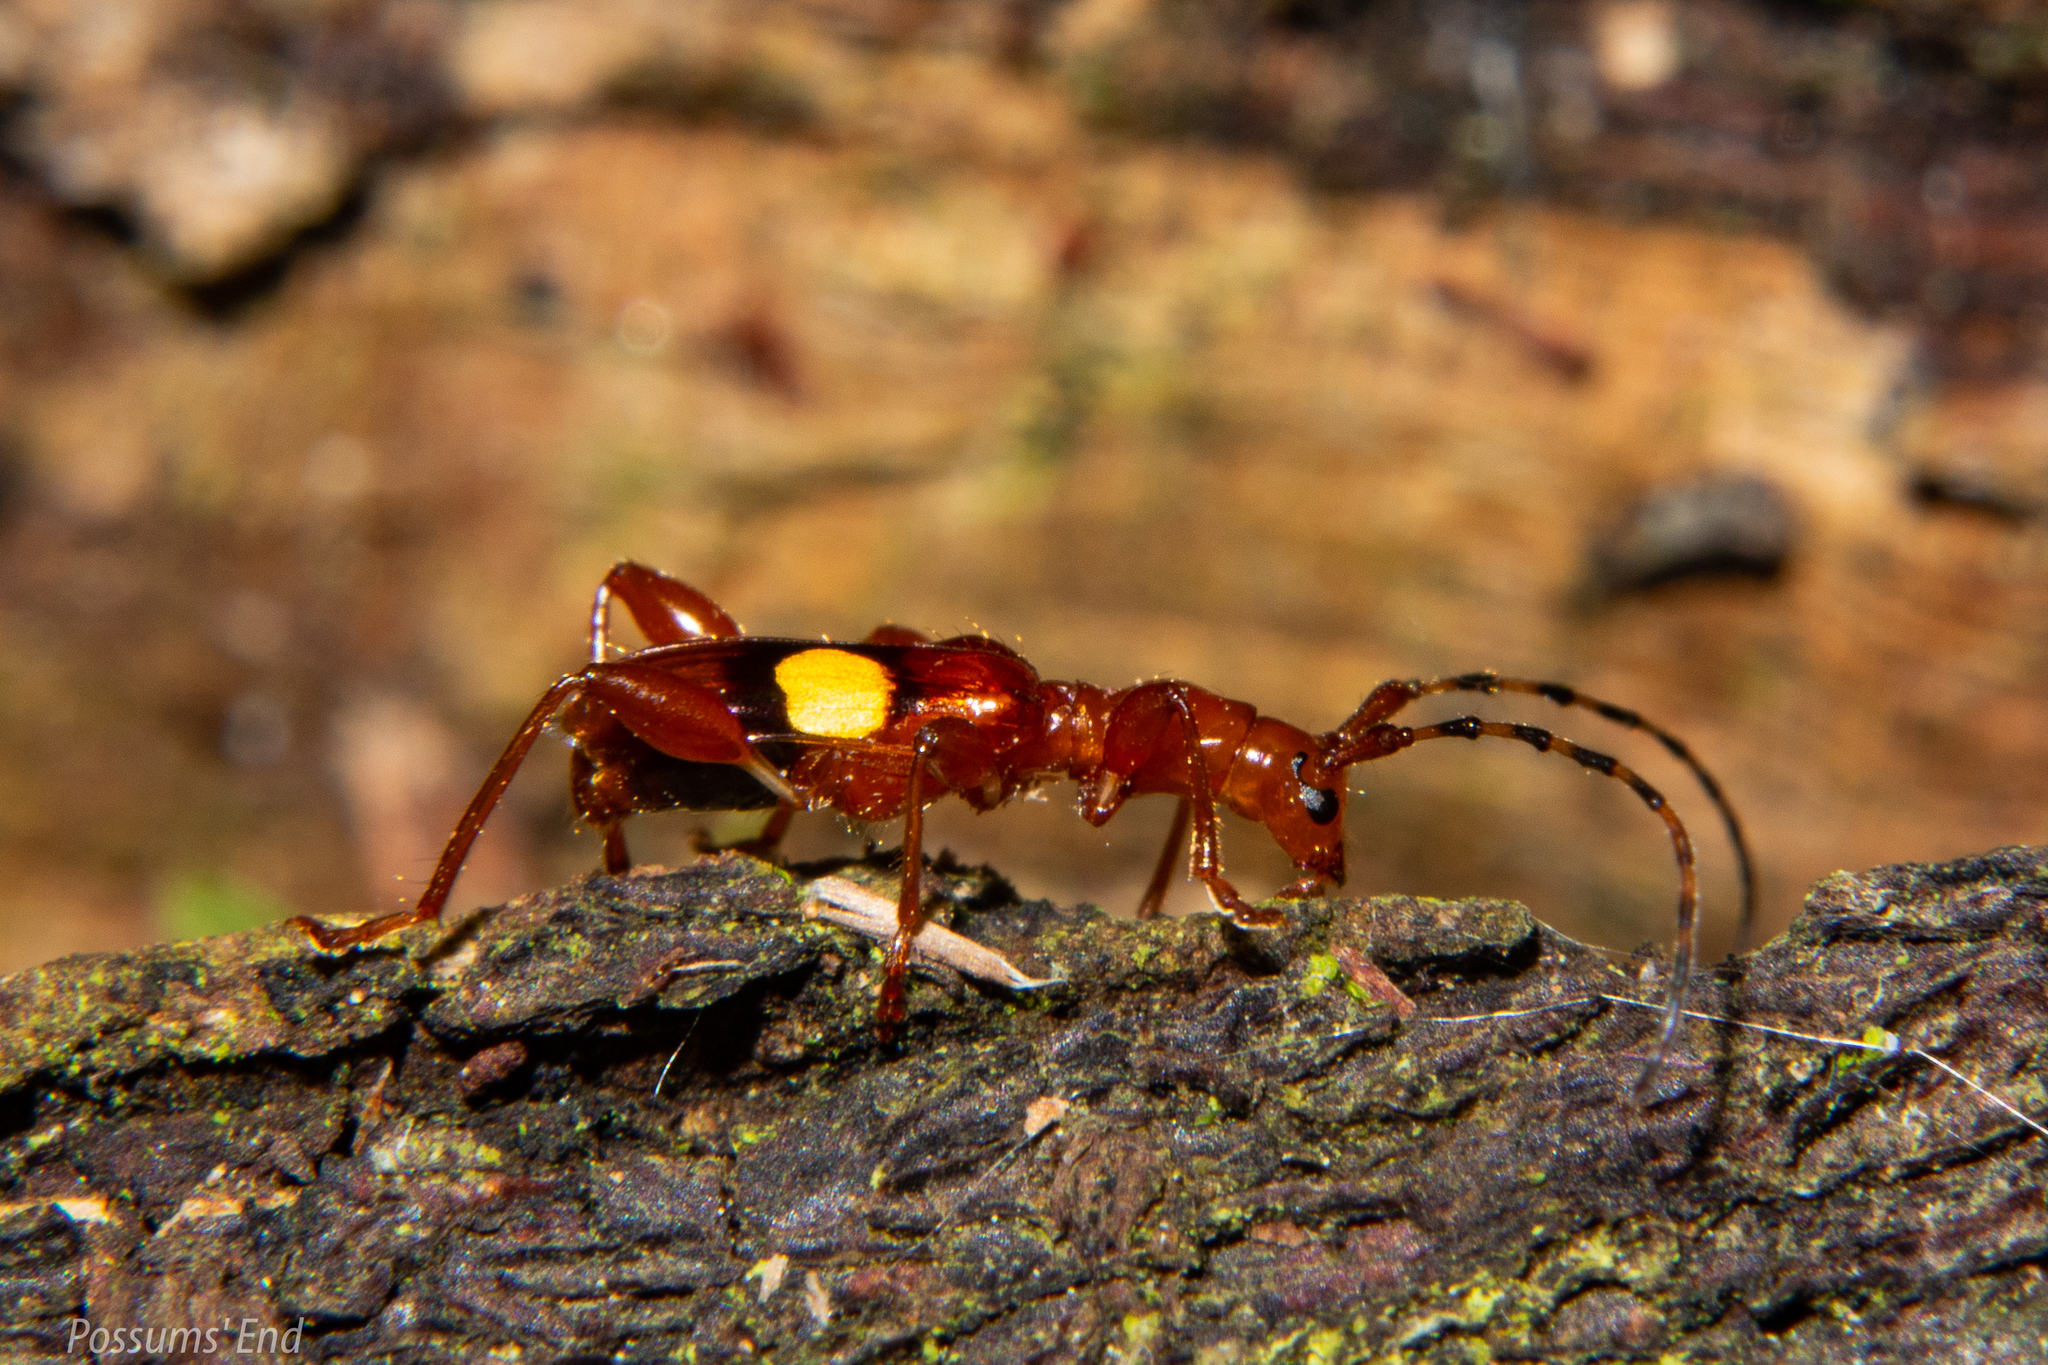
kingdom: Animalia
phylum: Arthropoda
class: Insecta
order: Coleoptera
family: Cerambycidae
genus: Zorion
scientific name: Zorion australe
